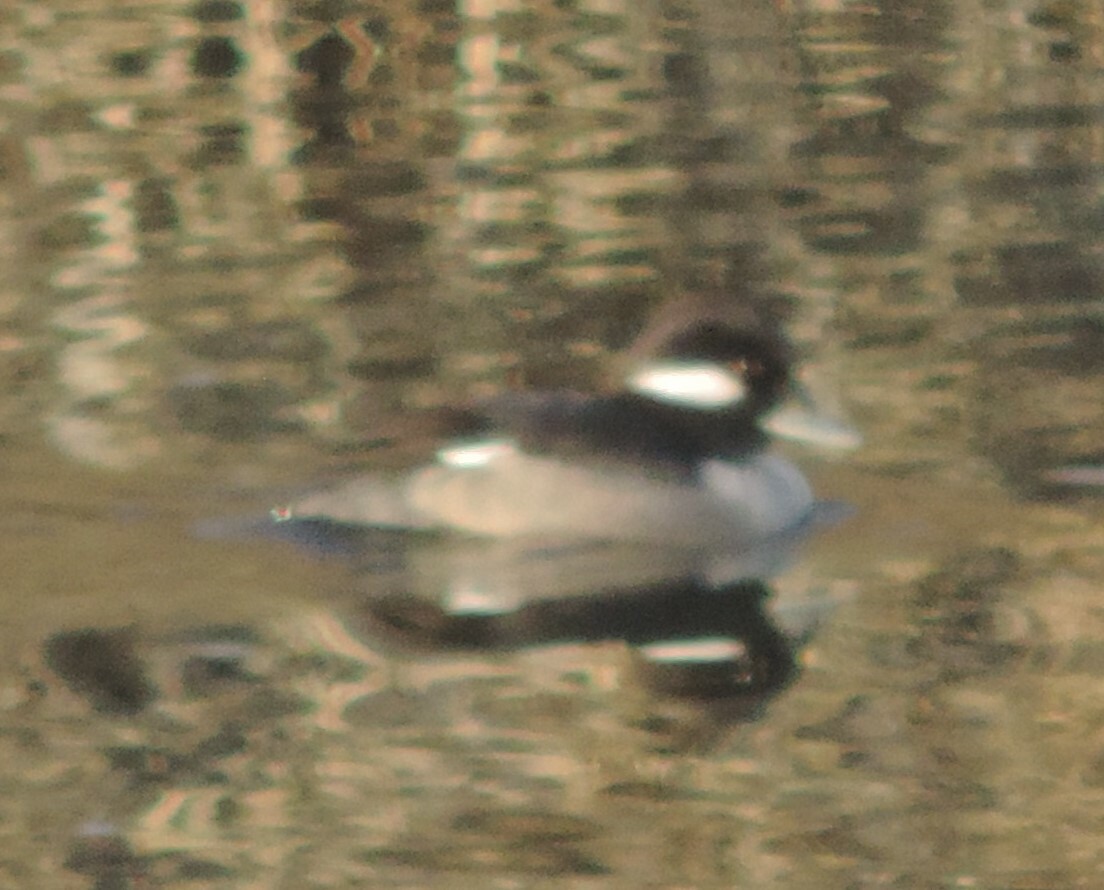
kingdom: Animalia
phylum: Chordata
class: Aves
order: Anseriformes
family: Anatidae
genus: Bucephala
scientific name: Bucephala albeola
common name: Bufflehead
